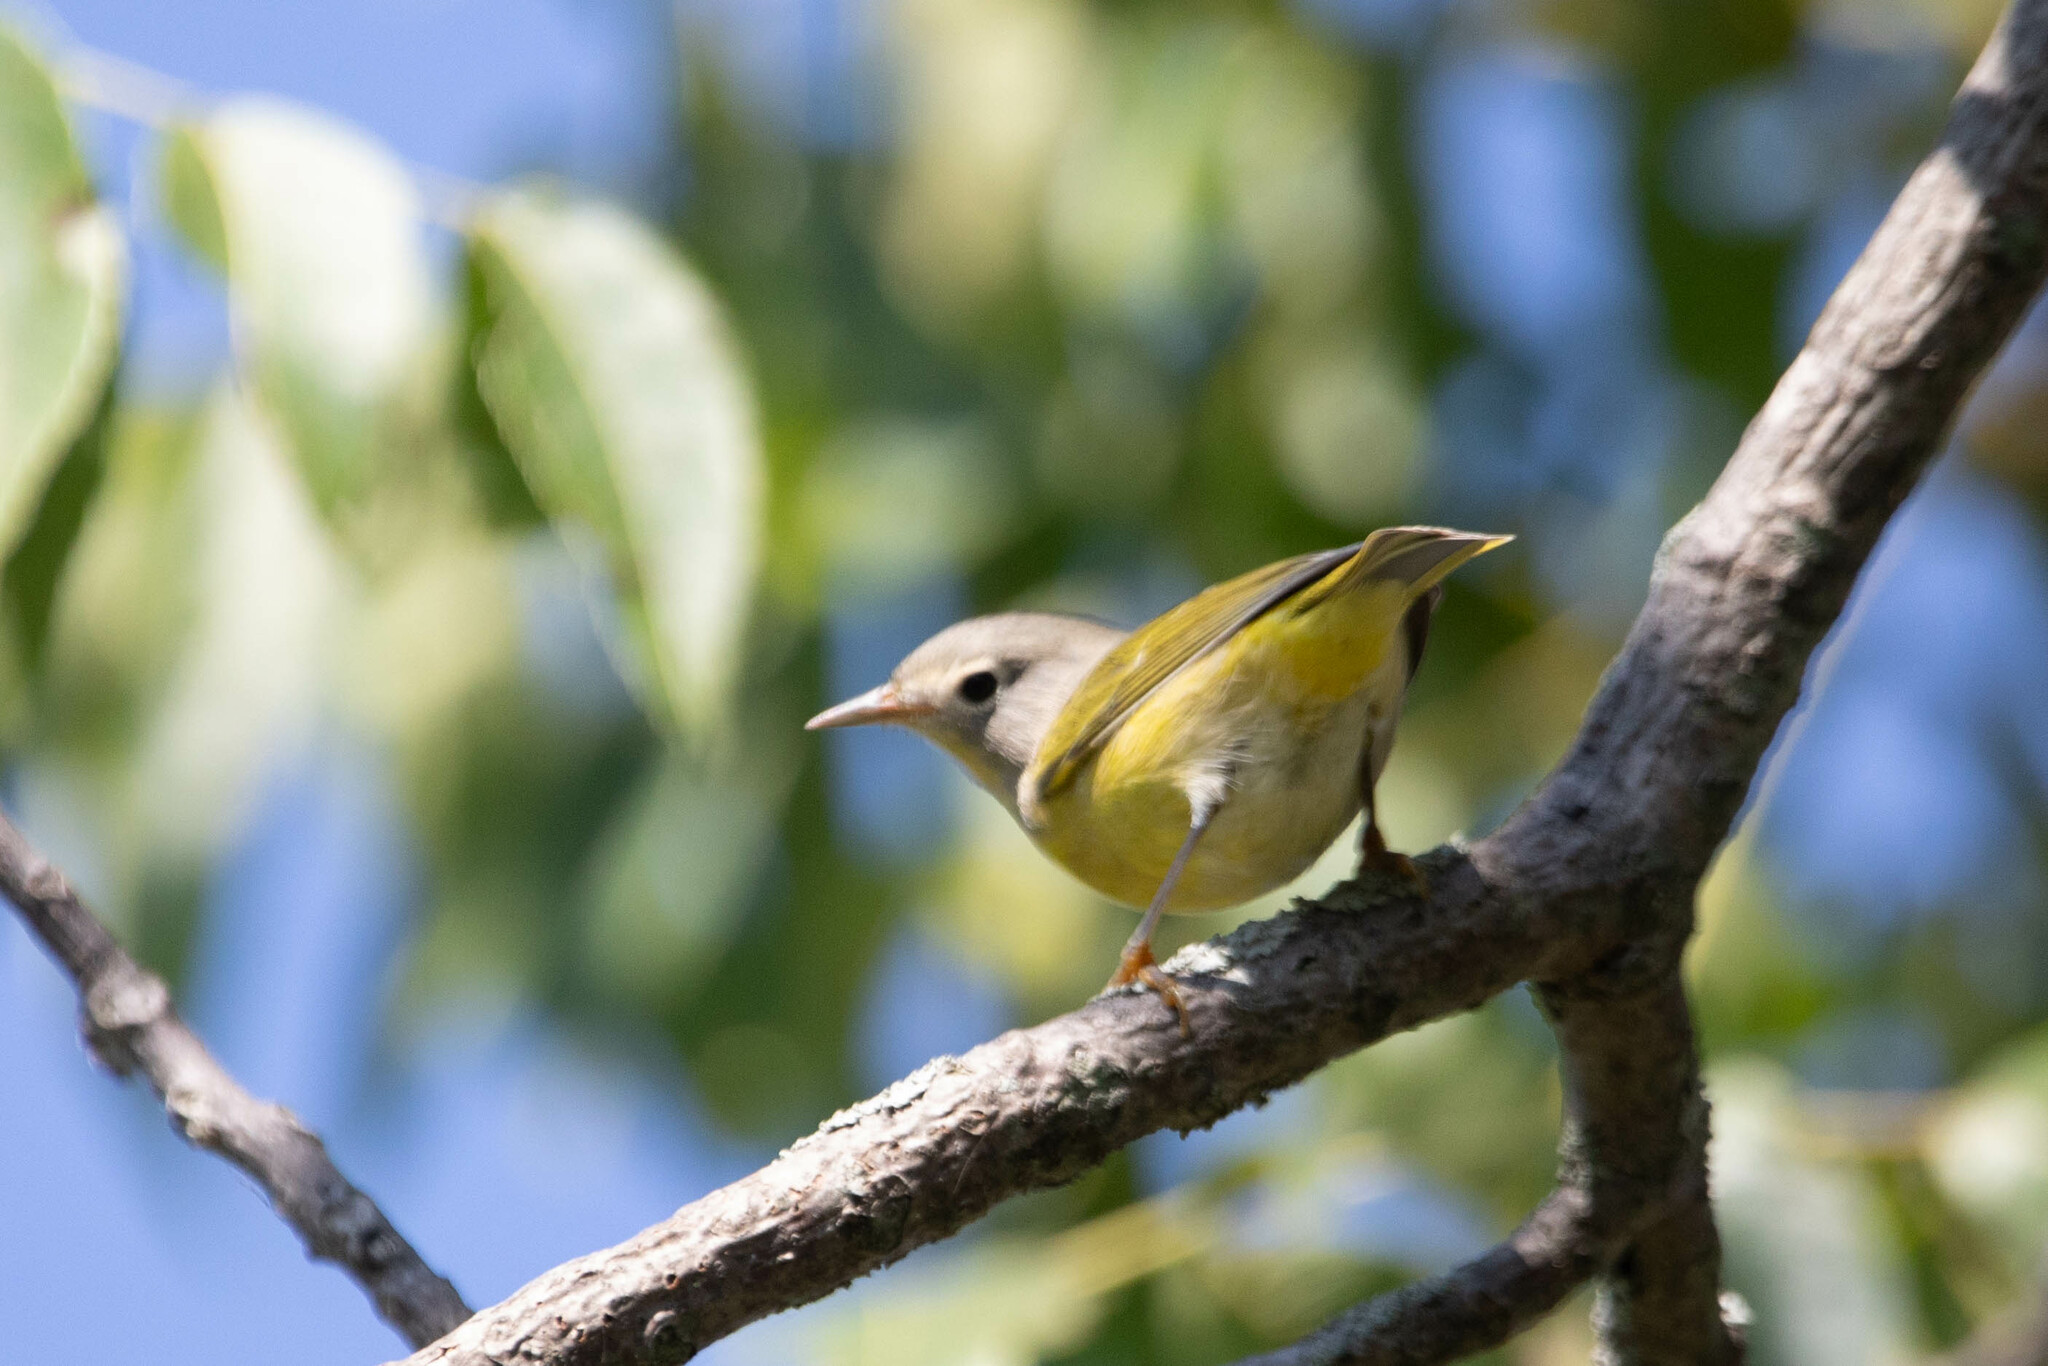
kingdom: Animalia
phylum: Chordata
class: Aves
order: Passeriformes
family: Parulidae
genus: Leiothlypis
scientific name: Leiothlypis ruficapilla
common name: Nashville warbler
